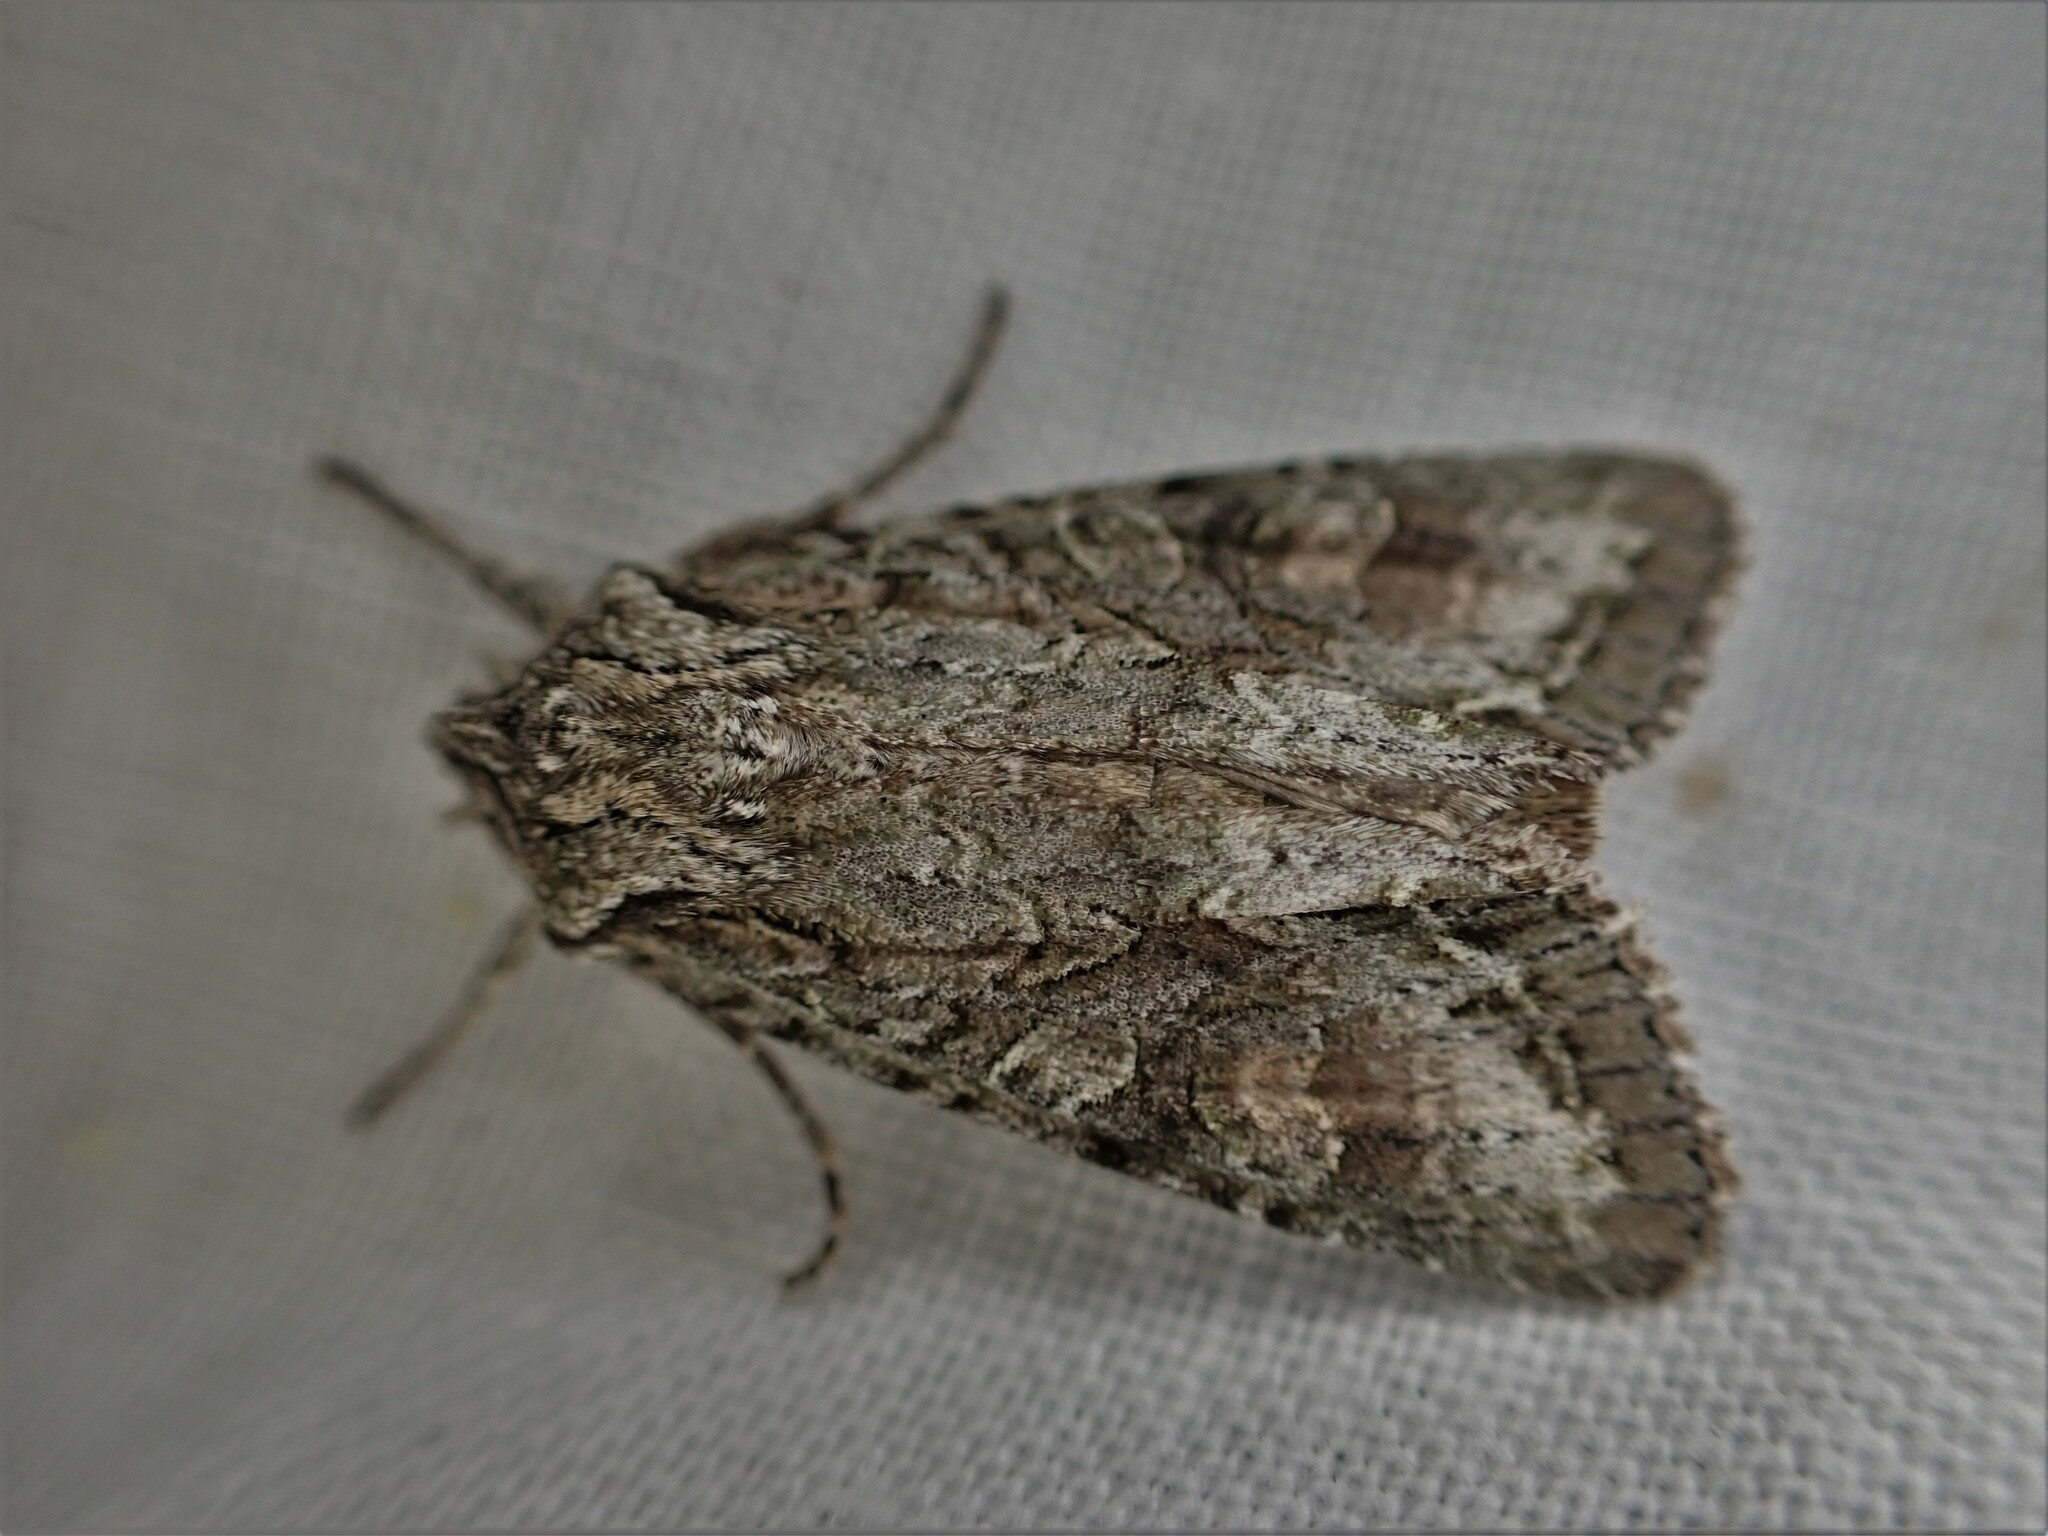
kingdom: Animalia
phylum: Arthropoda
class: Insecta
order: Lepidoptera
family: Noctuidae
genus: Ichneutica
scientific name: Ichneutica mutans
